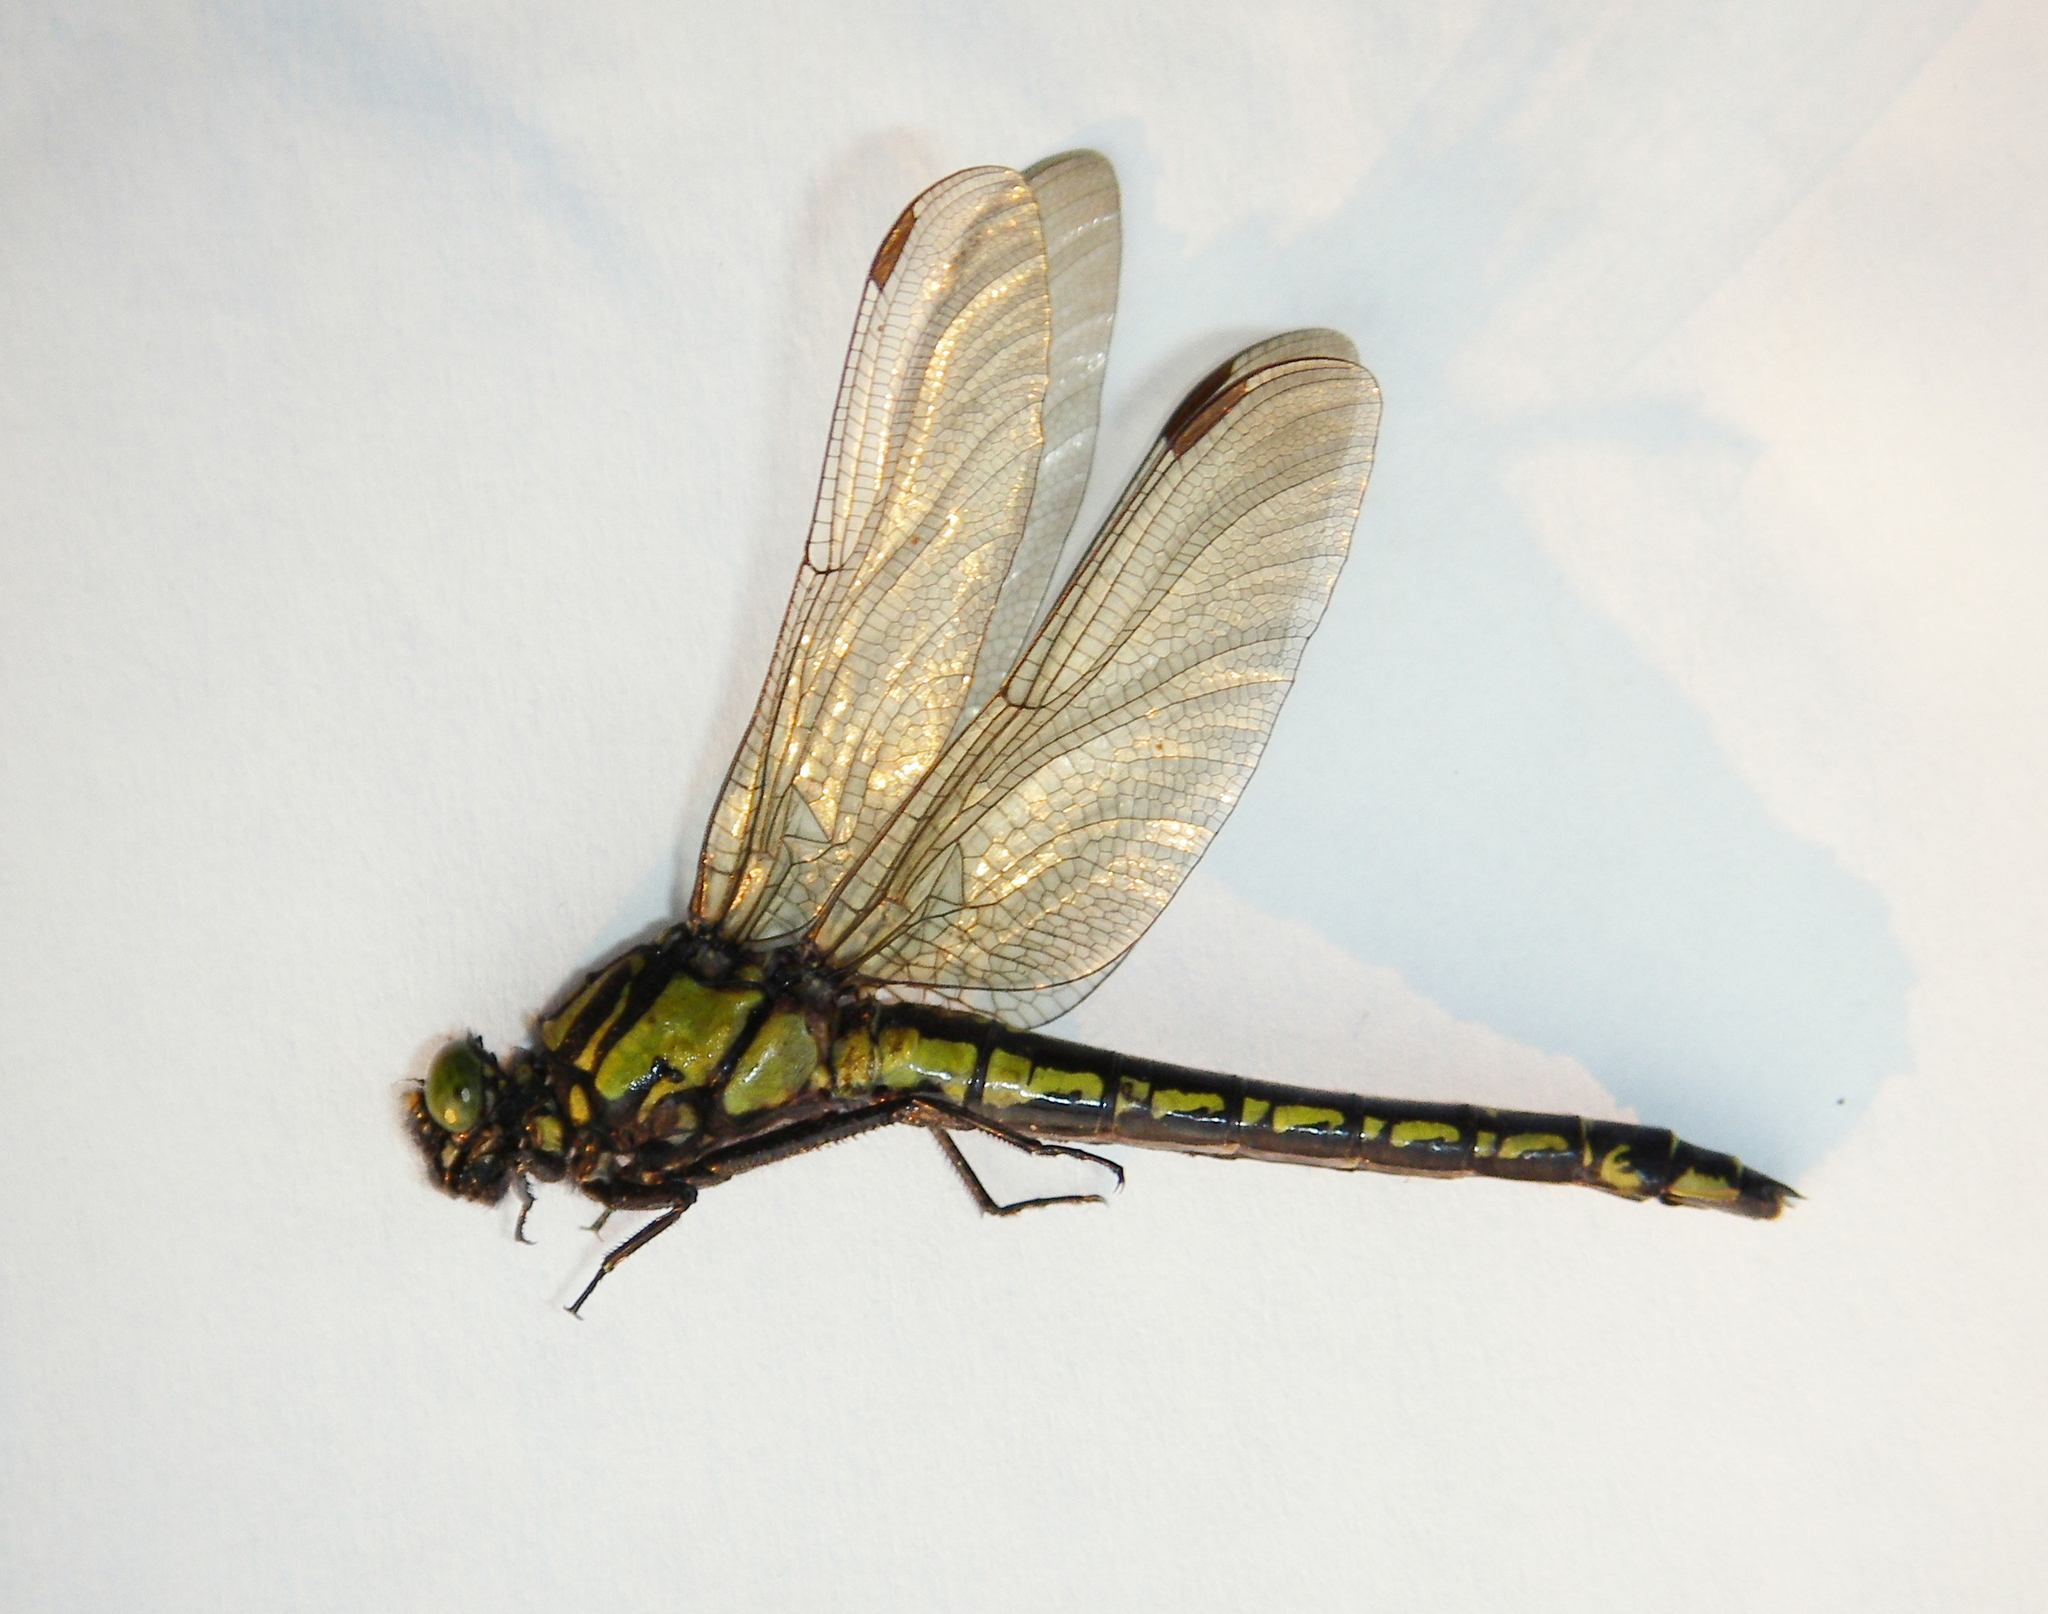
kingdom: Animalia
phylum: Arthropoda
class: Insecta
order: Odonata
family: Gomphidae
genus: Shaogomphus
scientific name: Shaogomphus postocularis
